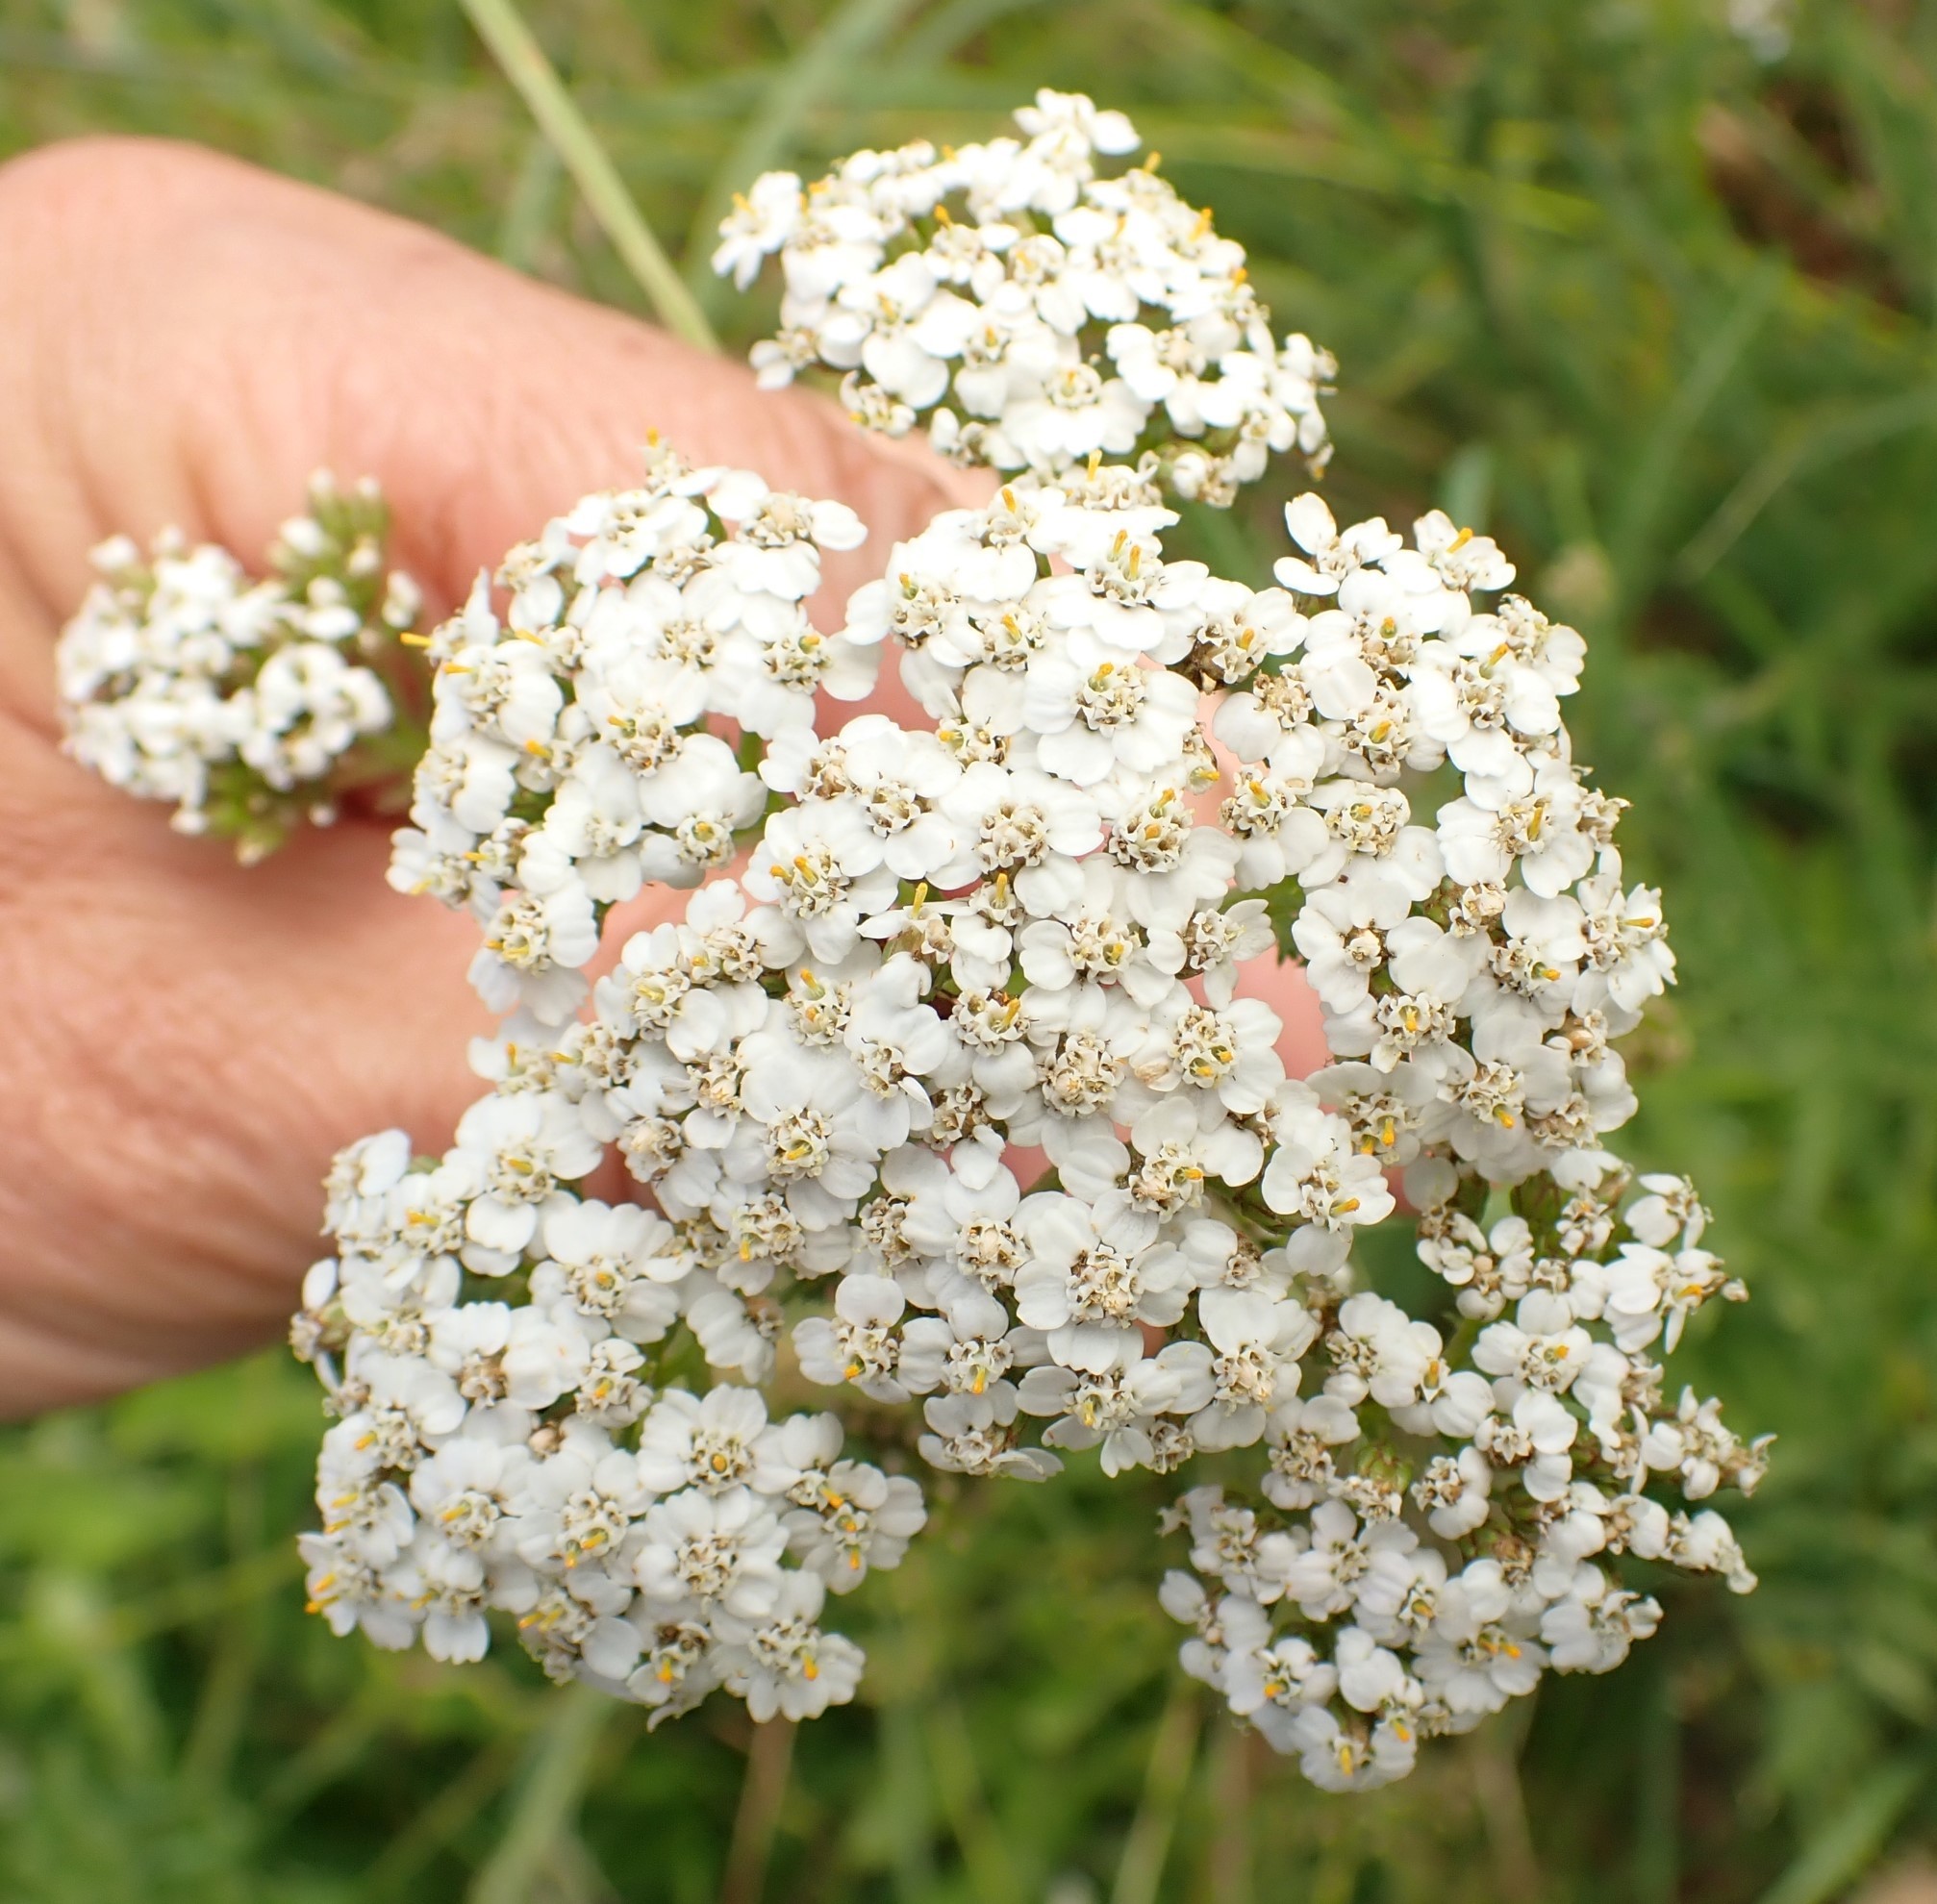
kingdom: Plantae
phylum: Tracheophyta
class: Magnoliopsida
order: Asterales
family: Asteraceae
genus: Achillea
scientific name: Achillea millefolium
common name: Yarrow
